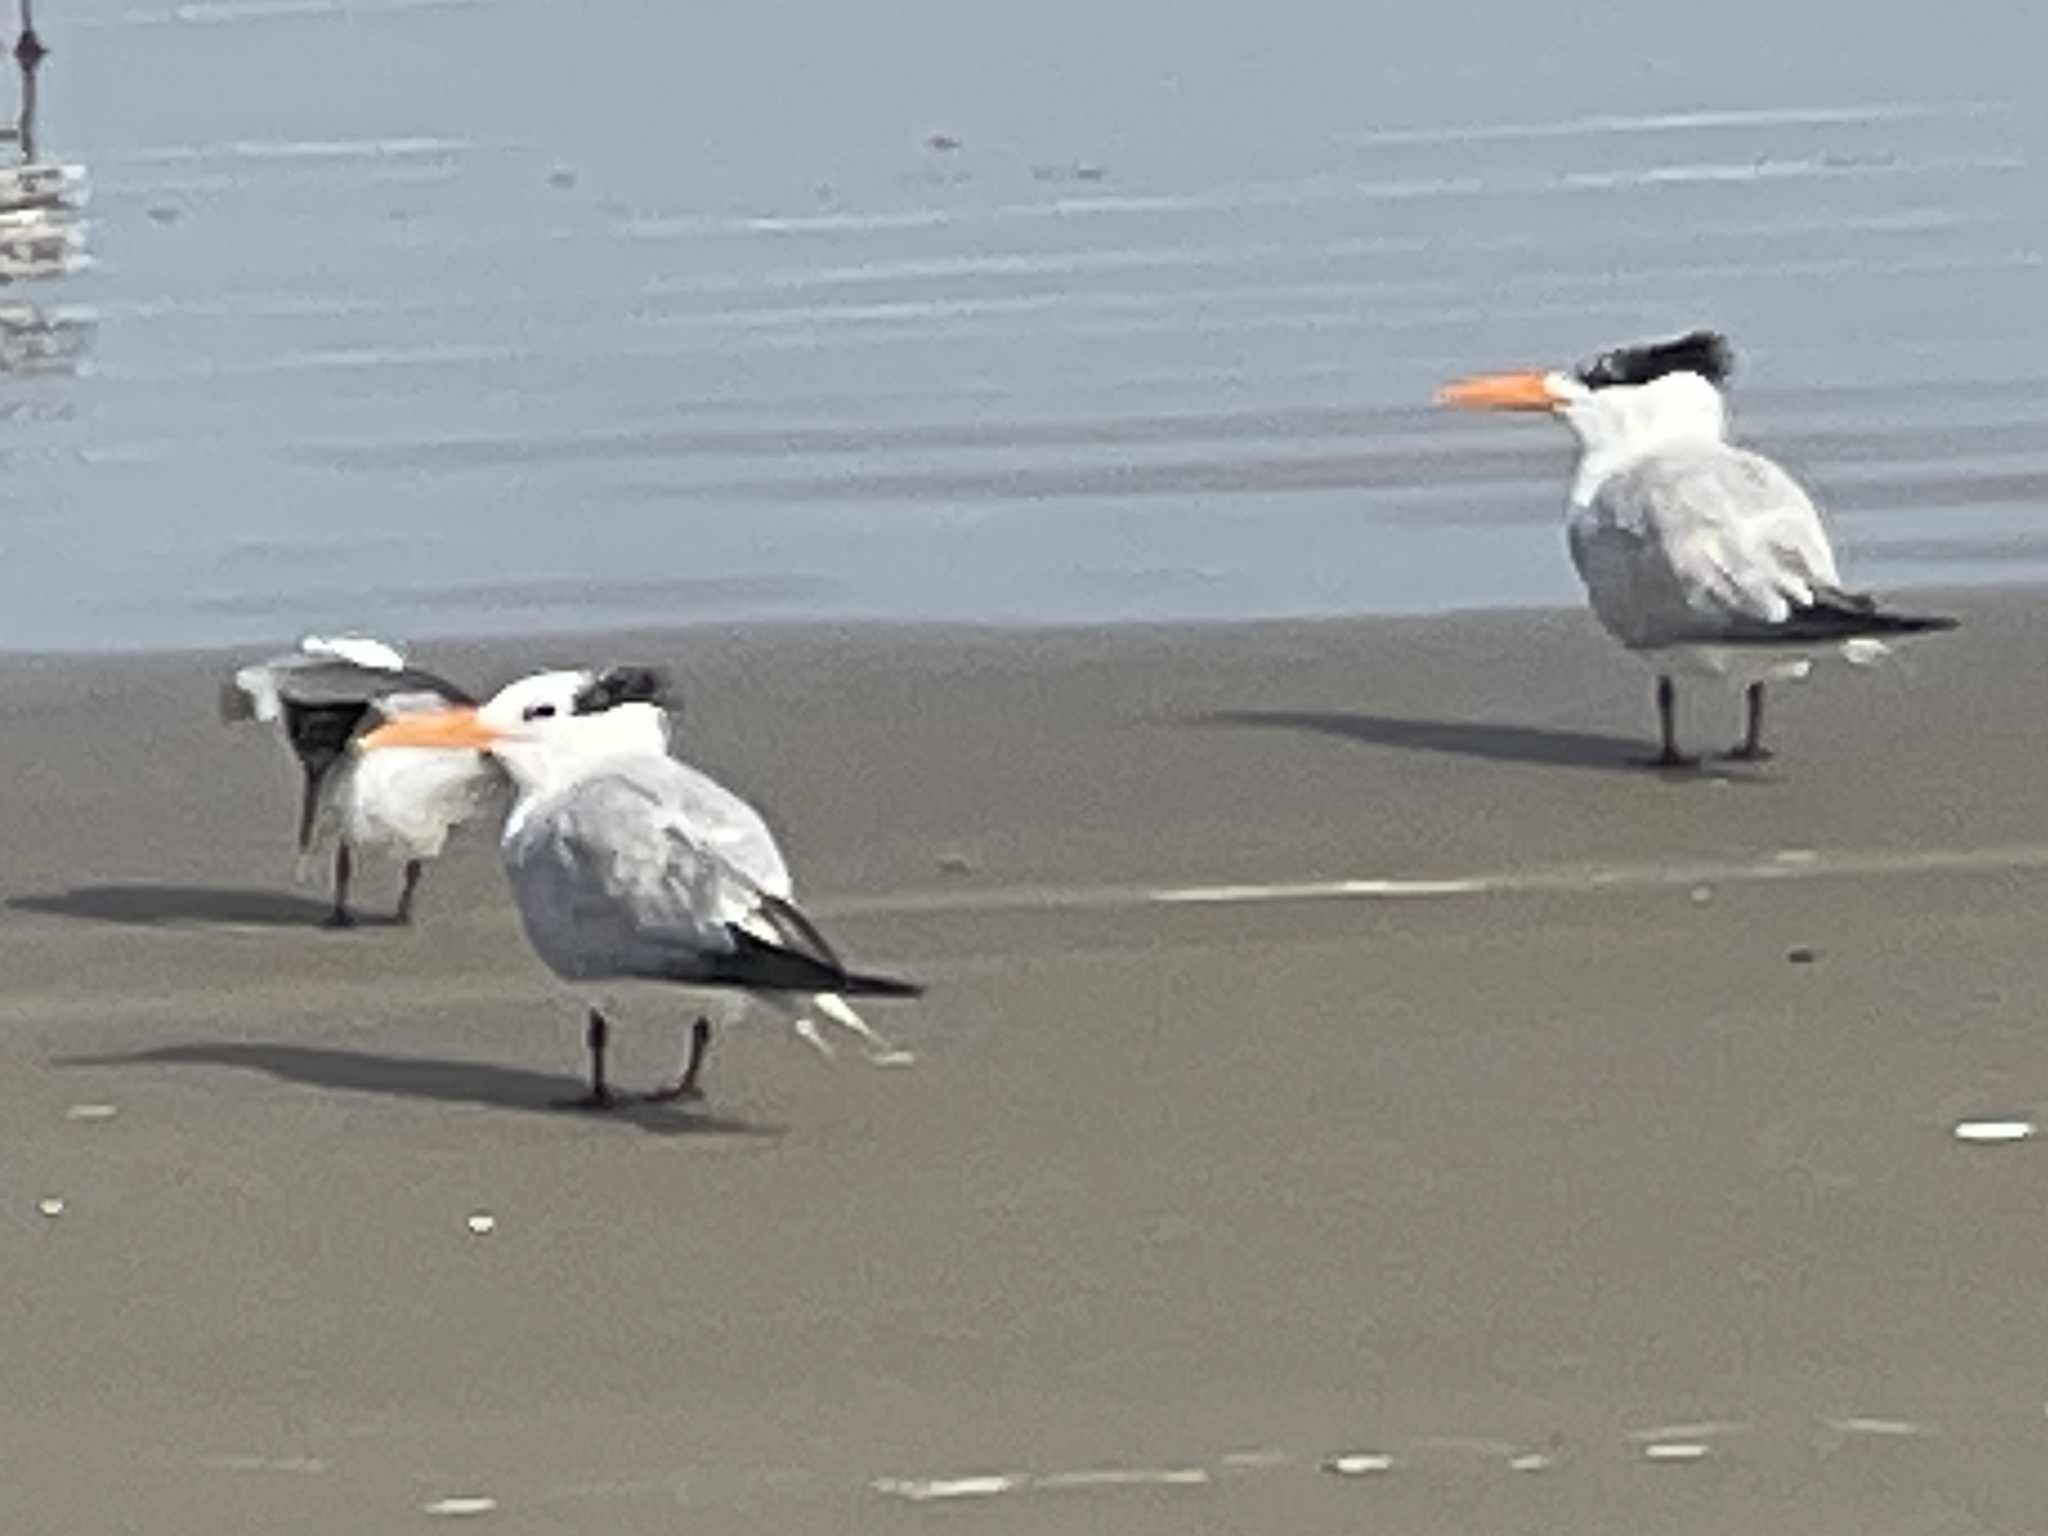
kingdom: Animalia
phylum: Chordata
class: Aves
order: Charadriiformes
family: Laridae
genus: Thalasseus
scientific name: Thalasseus maximus
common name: Royal tern
